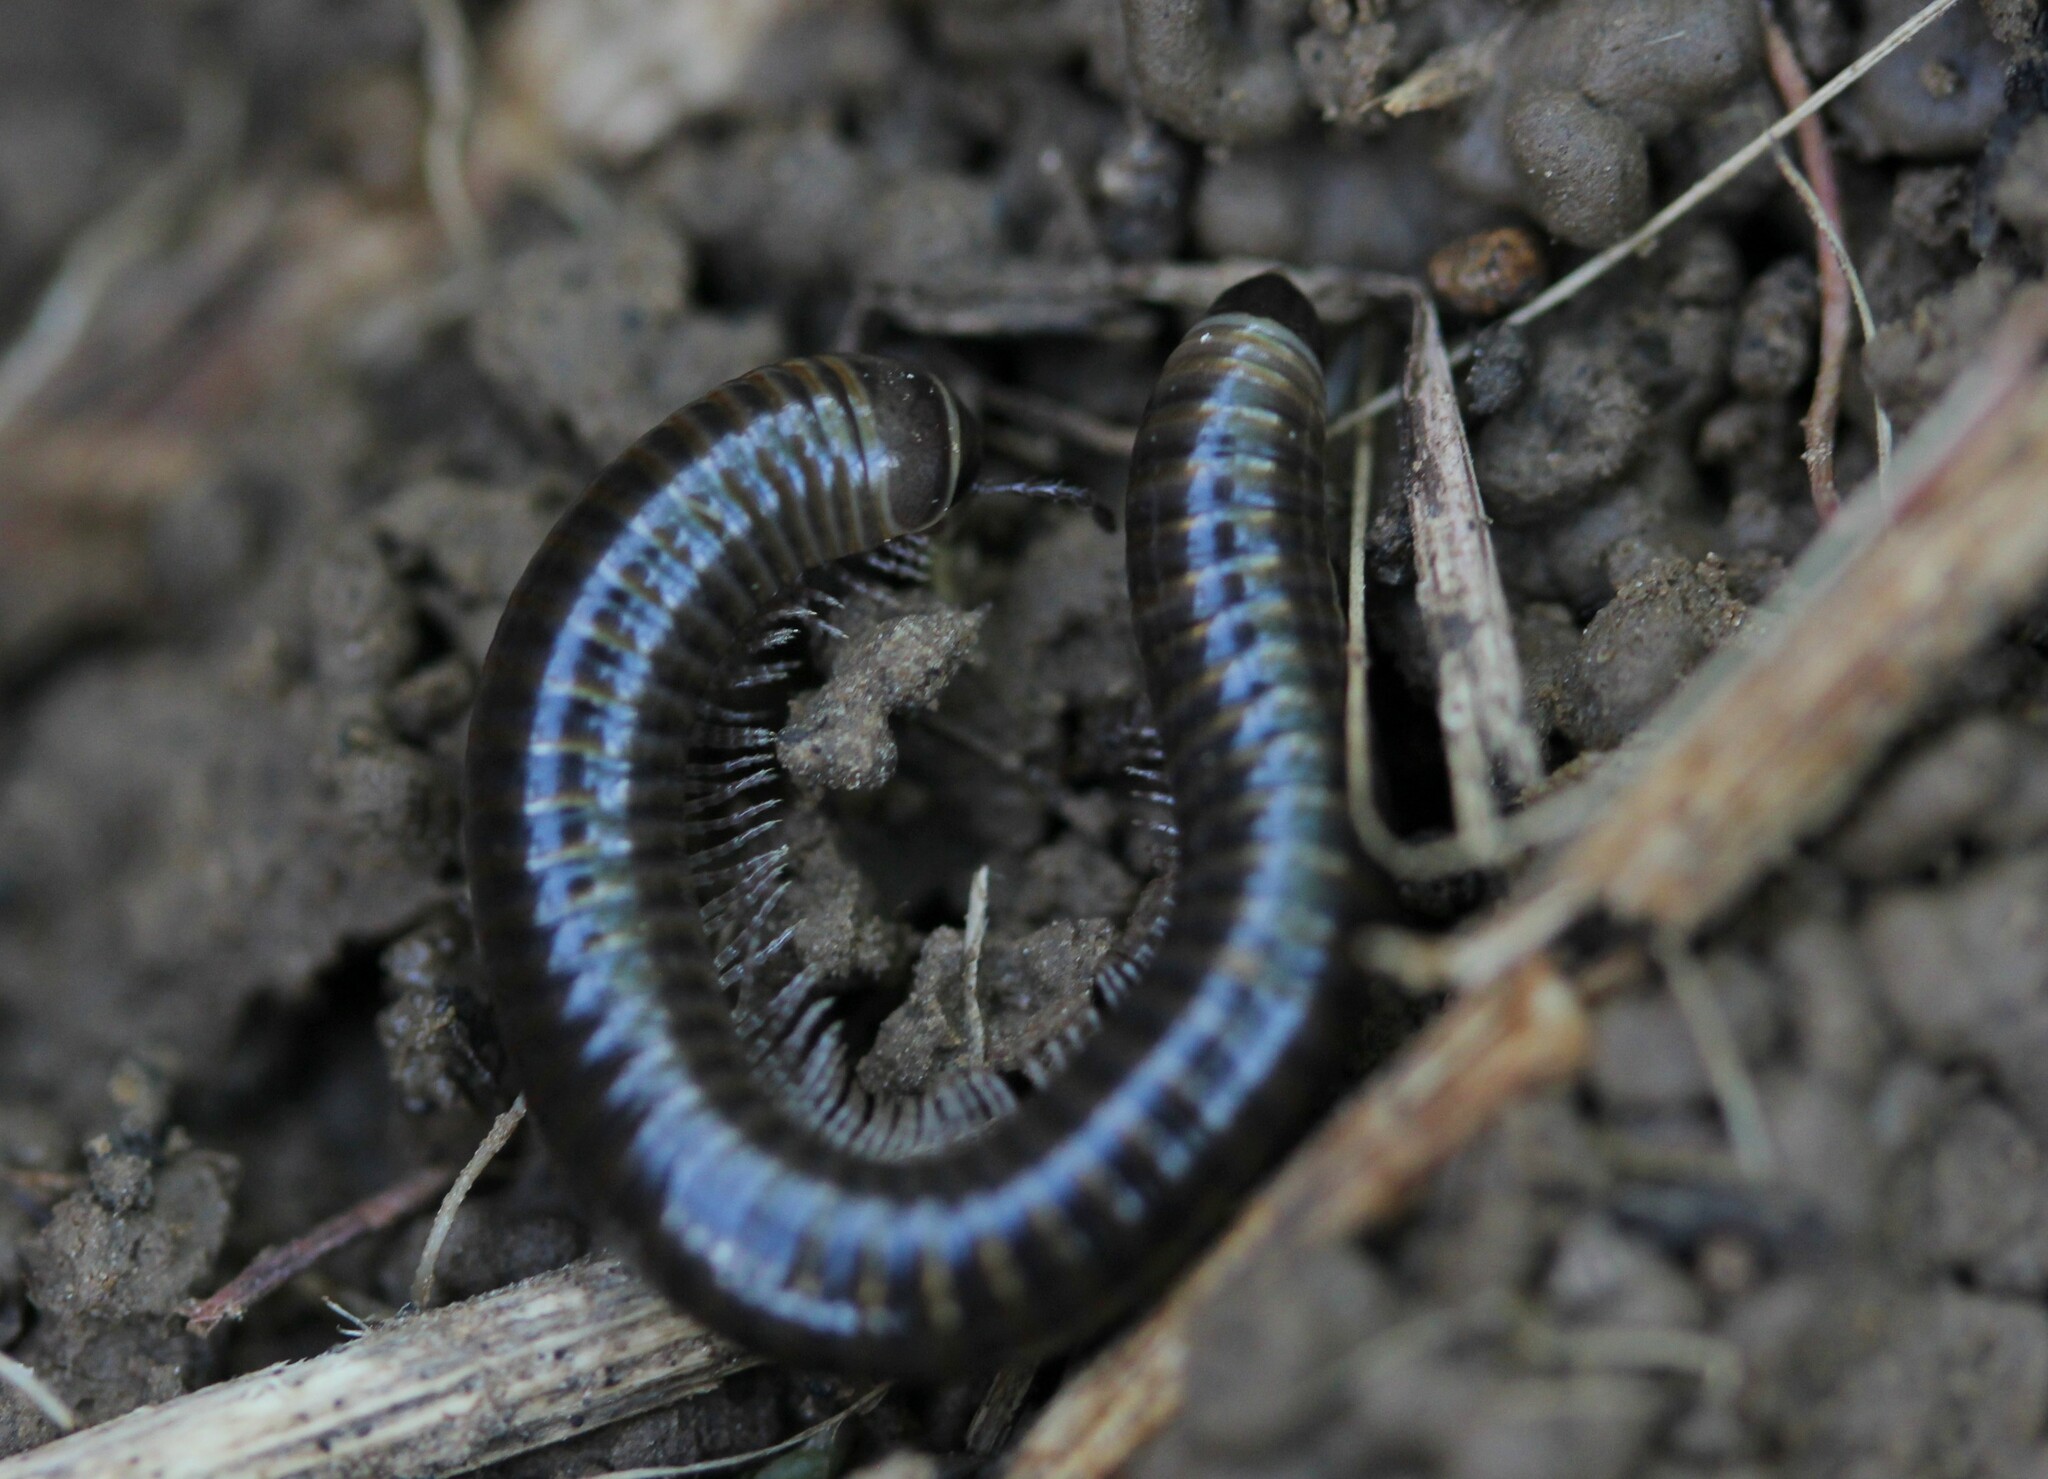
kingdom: Animalia
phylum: Arthropoda
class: Diplopoda
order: Julida
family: Julidae
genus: Cylindroiulus
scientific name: Cylindroiulus caeruleocinctus
